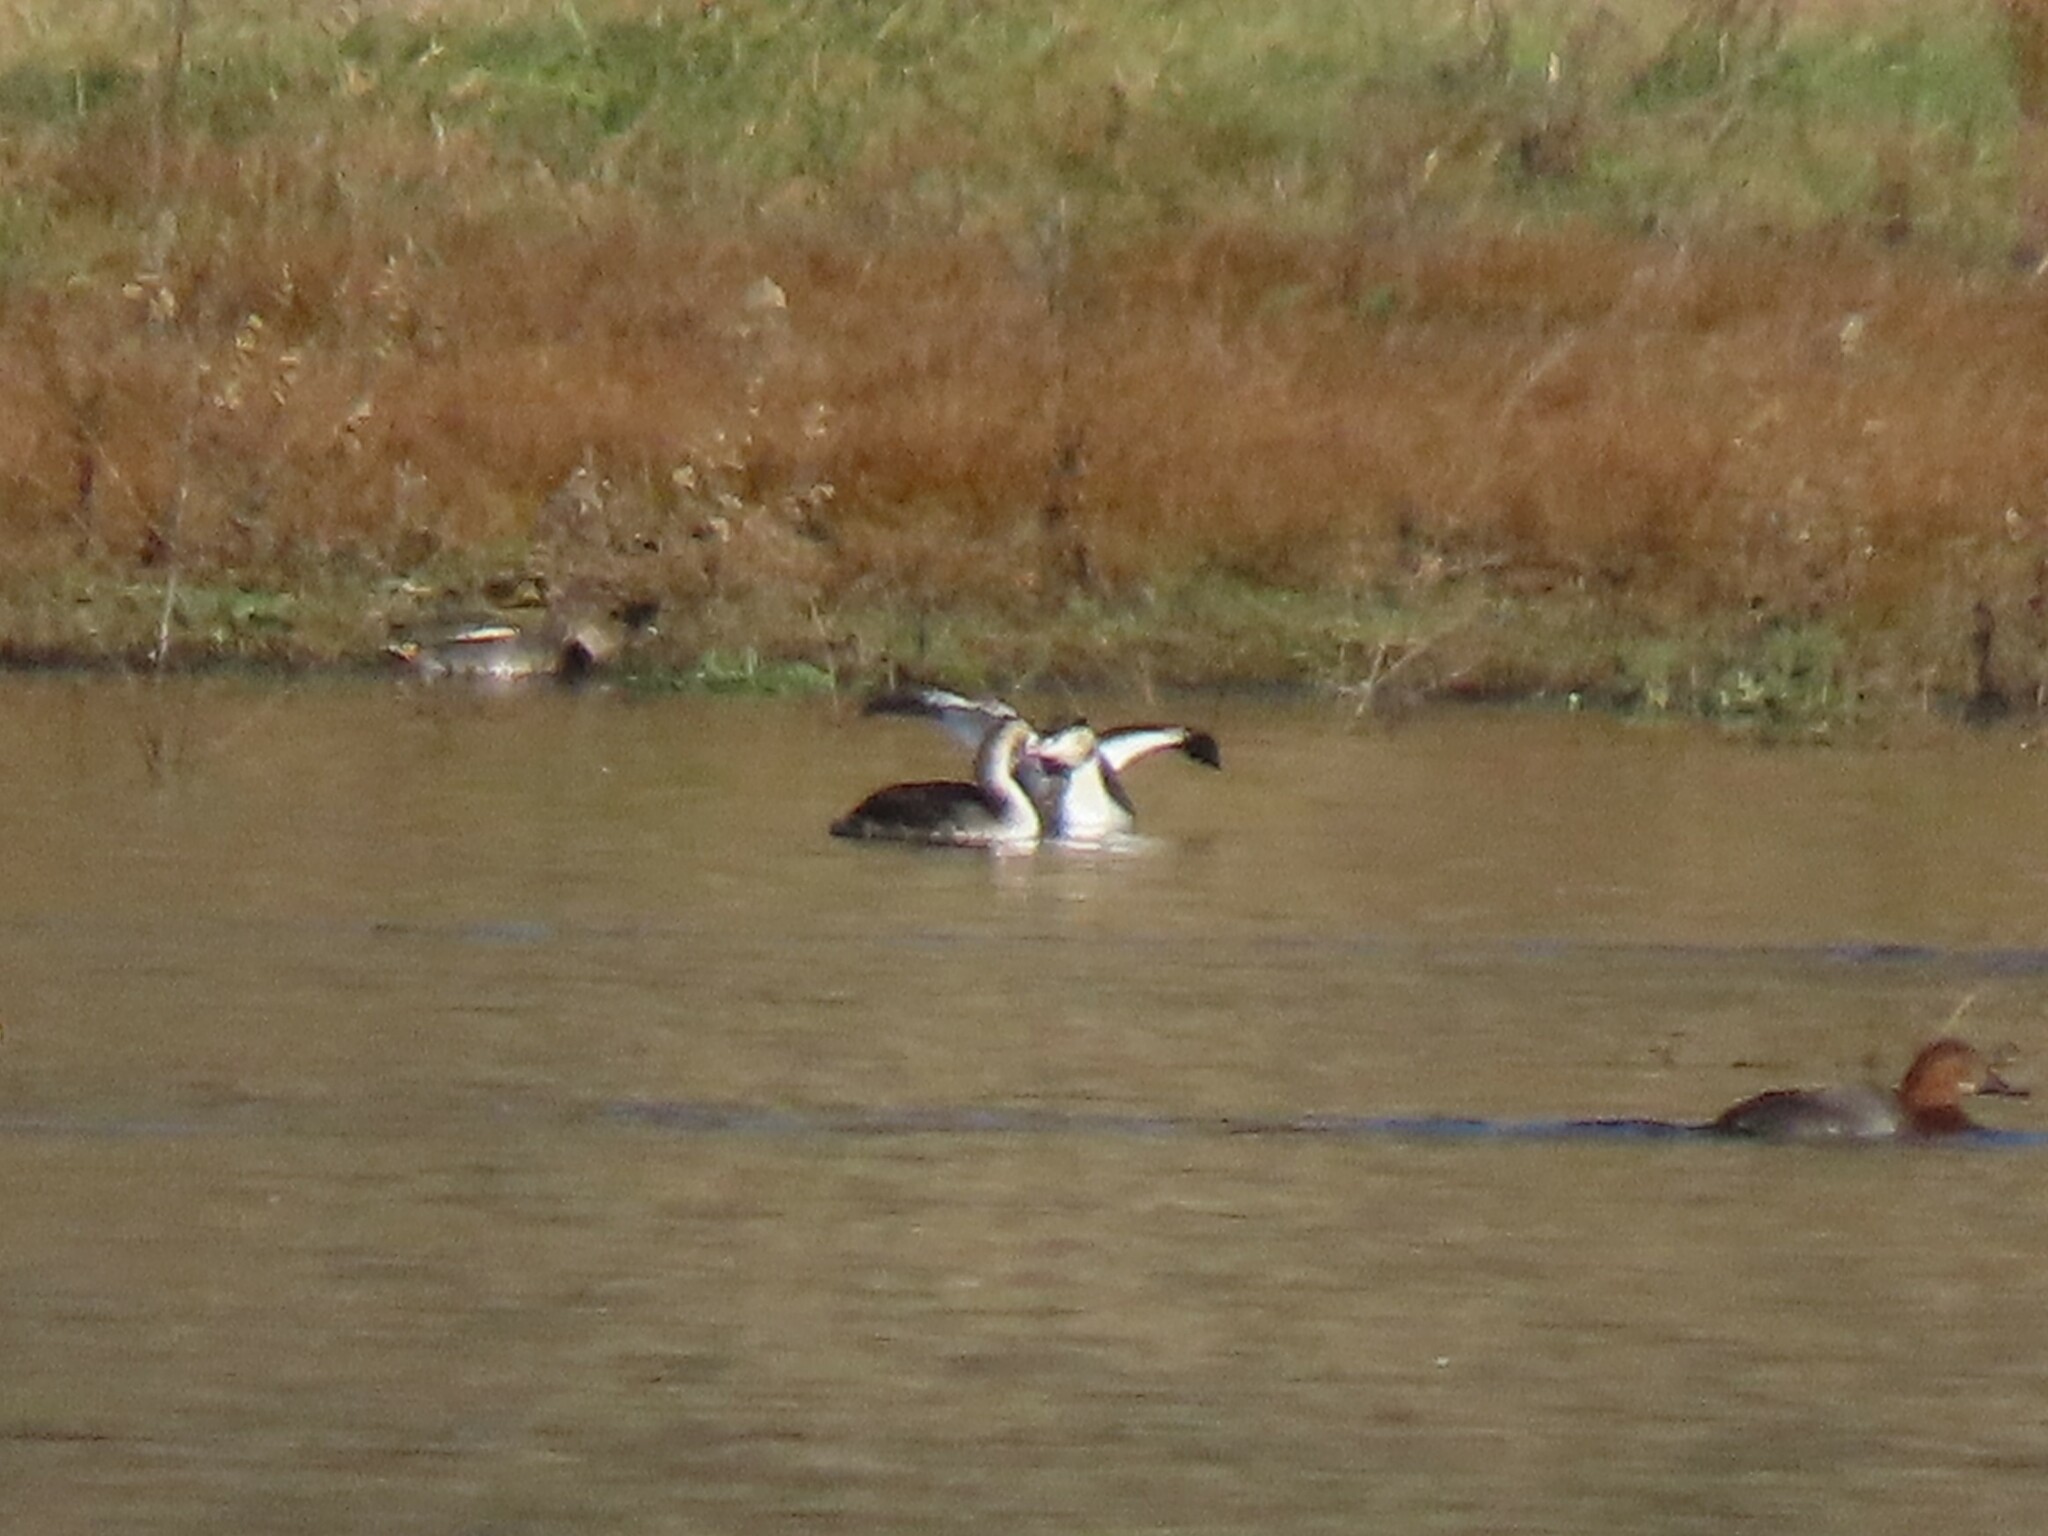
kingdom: Animalia
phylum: Chordata
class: Aves
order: Podicipediformes
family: Podicipedidae
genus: Podiceps
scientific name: Podiceps cristatus
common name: Great crested grebe
